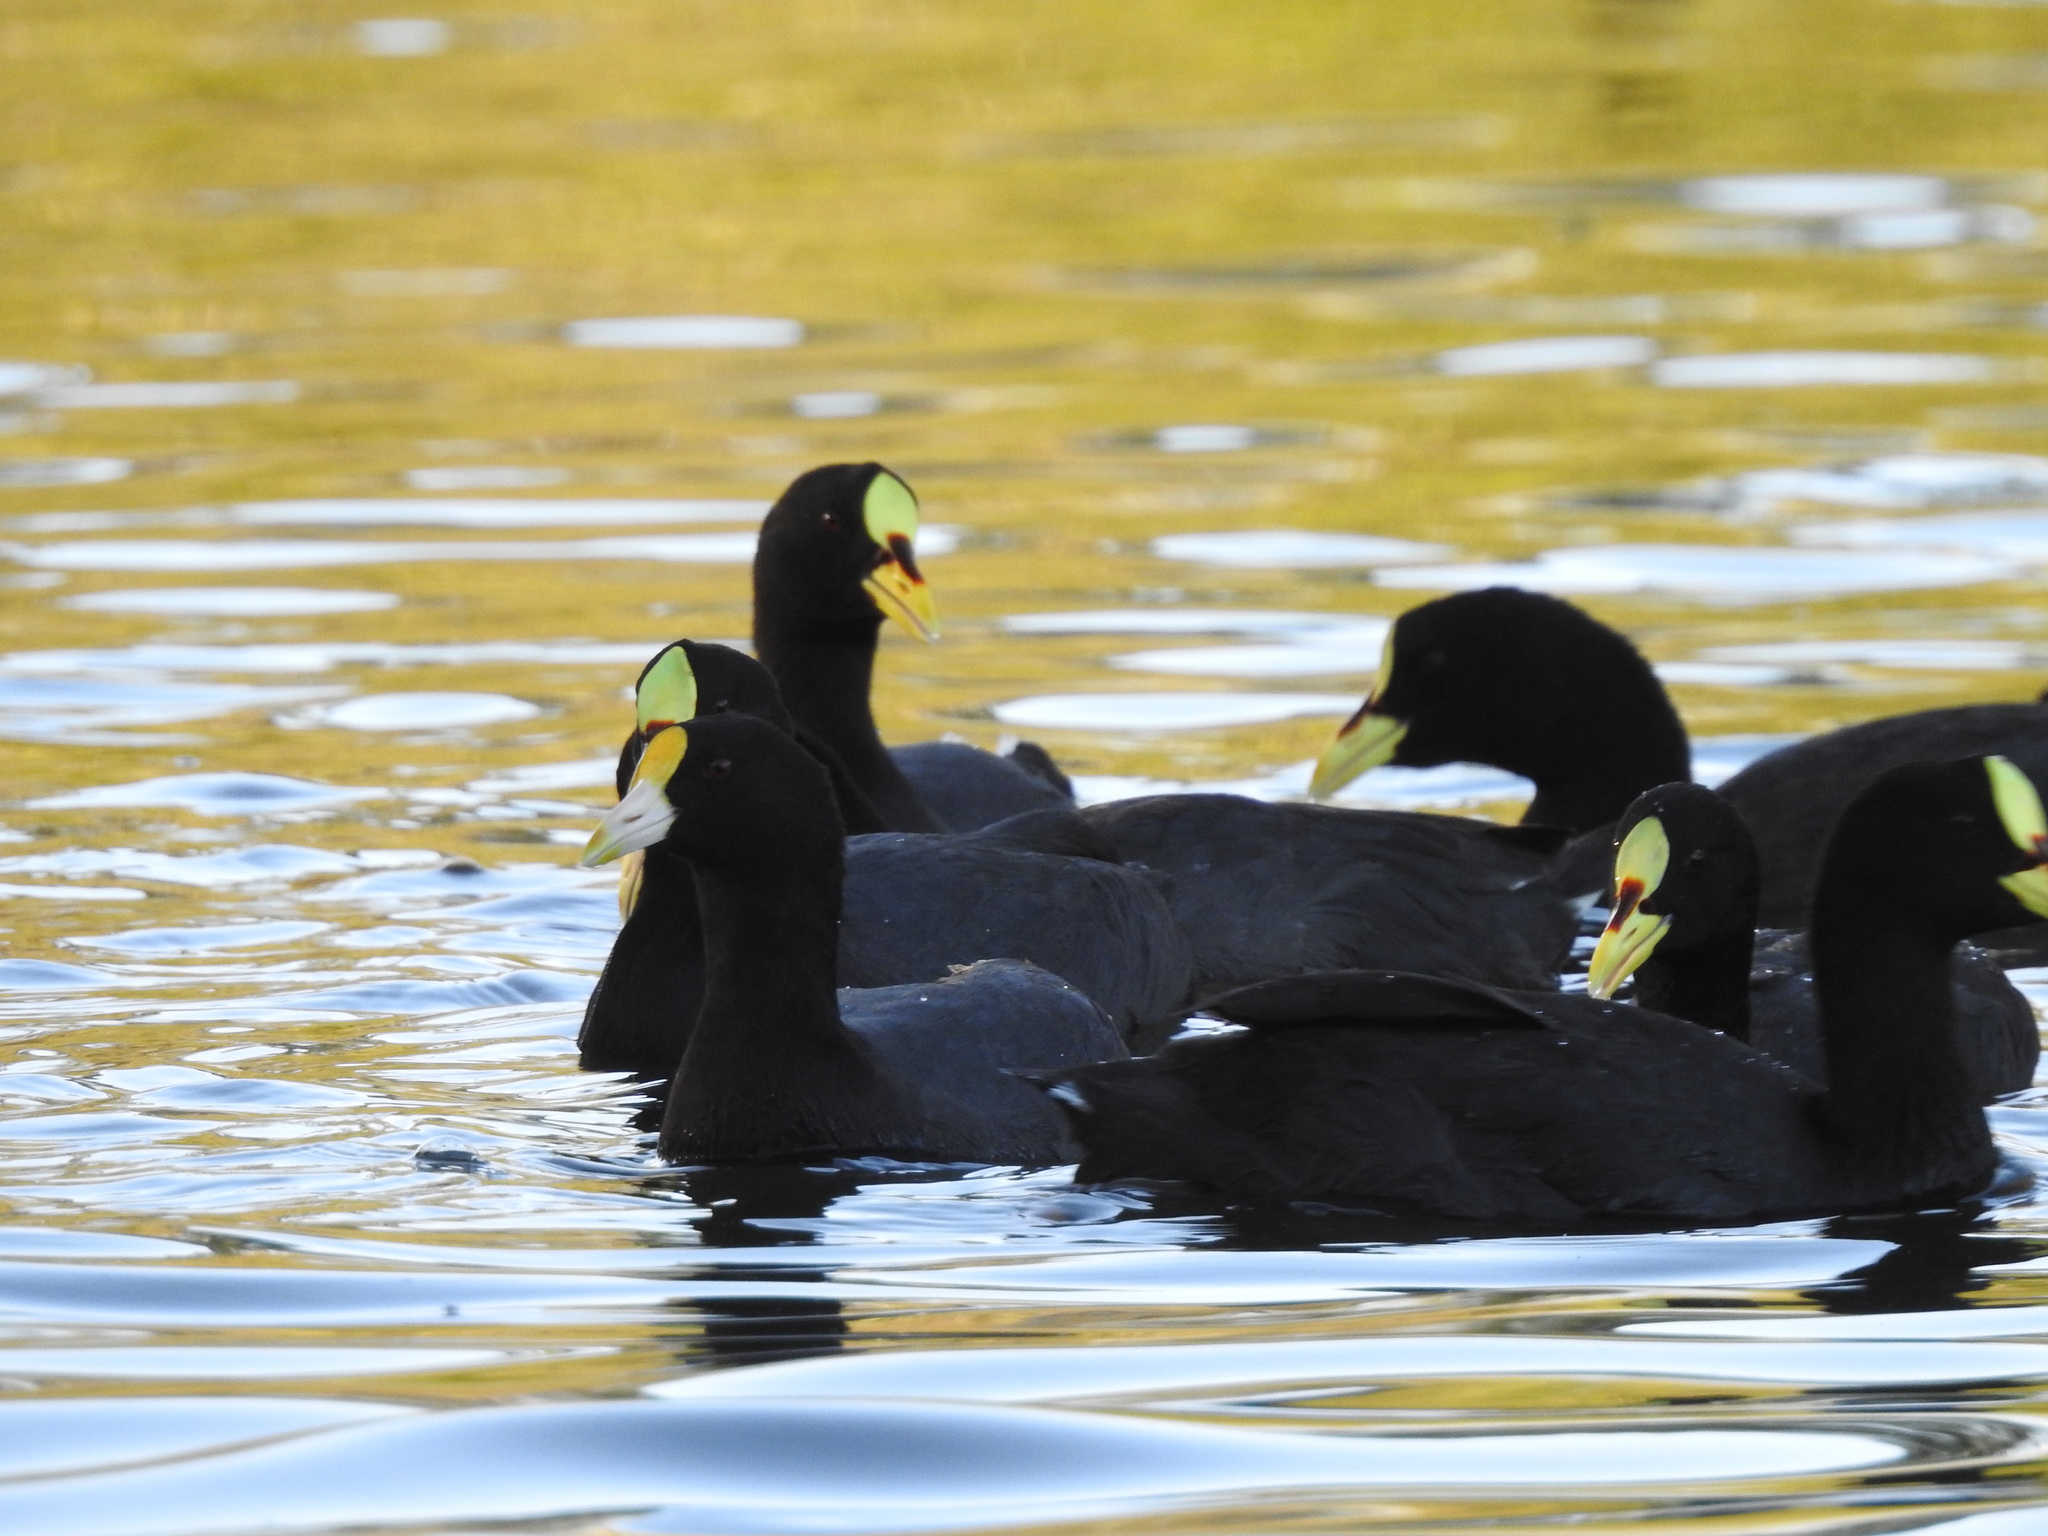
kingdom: Animalia
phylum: Chordata
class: Aves
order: Gruiformes
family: Rallidae
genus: Fulica
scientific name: Fulica armillata
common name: Red-gartered coot
